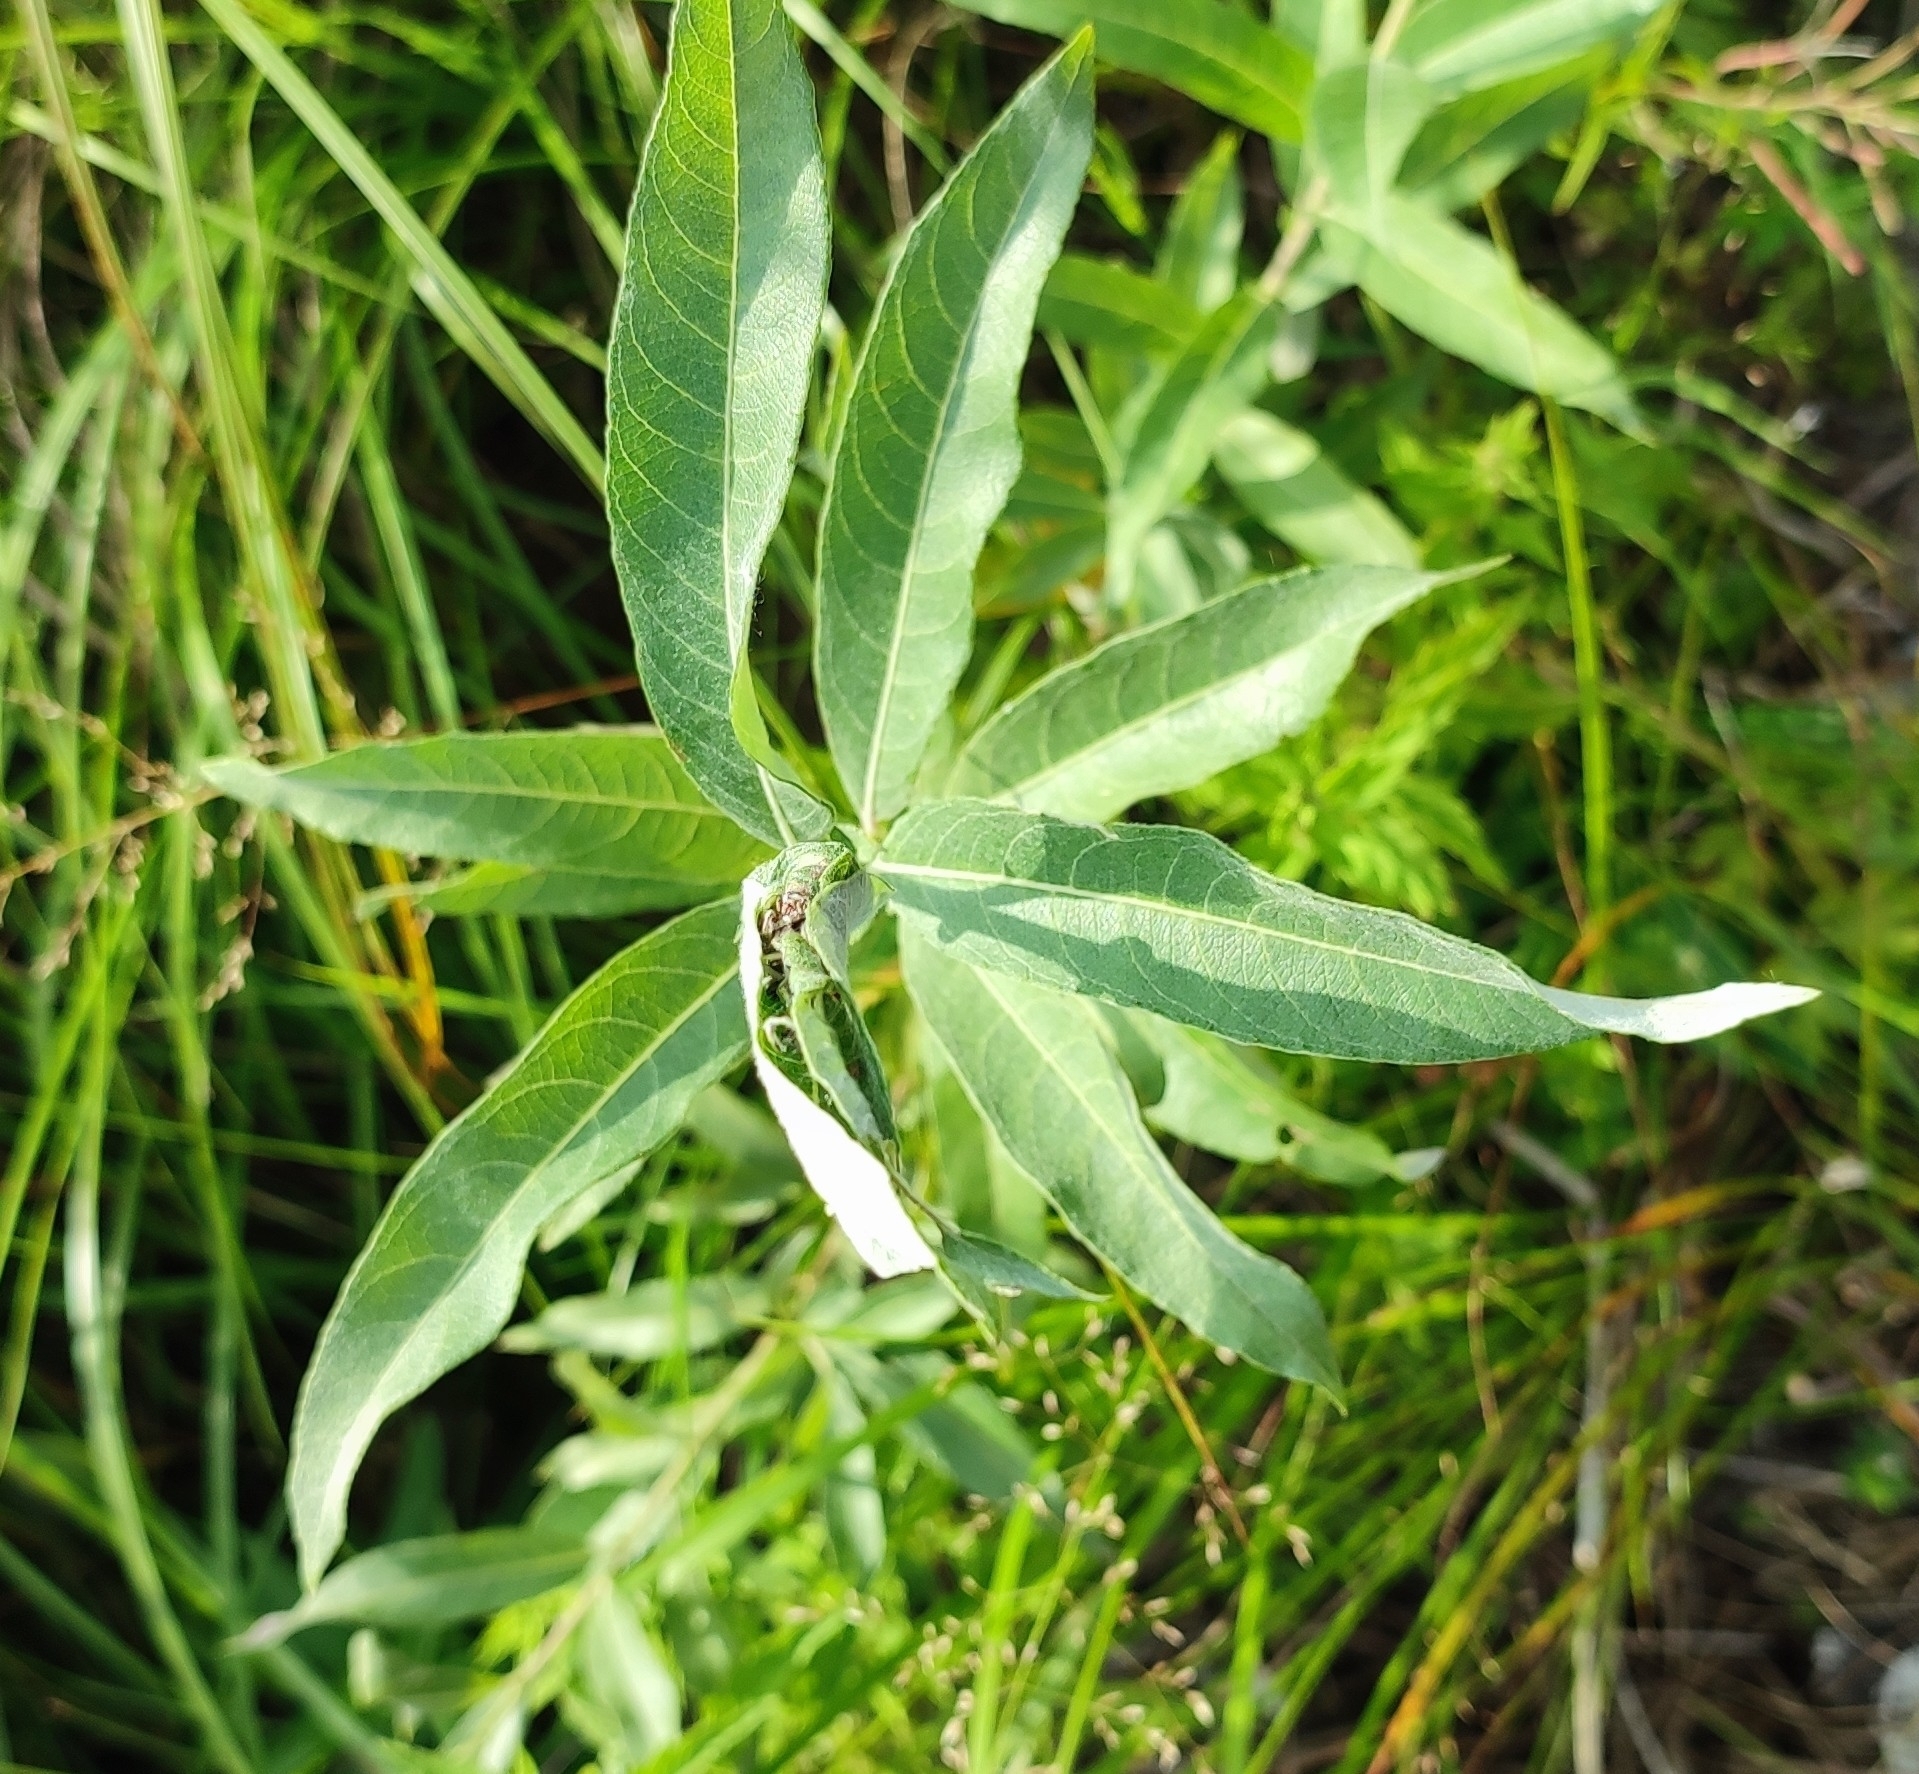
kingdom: Plantae
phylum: Tracheophyta
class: Magnoliopsida
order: Malpighiales
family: Salicaceae
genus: Salix
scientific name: Salix gmelinii
